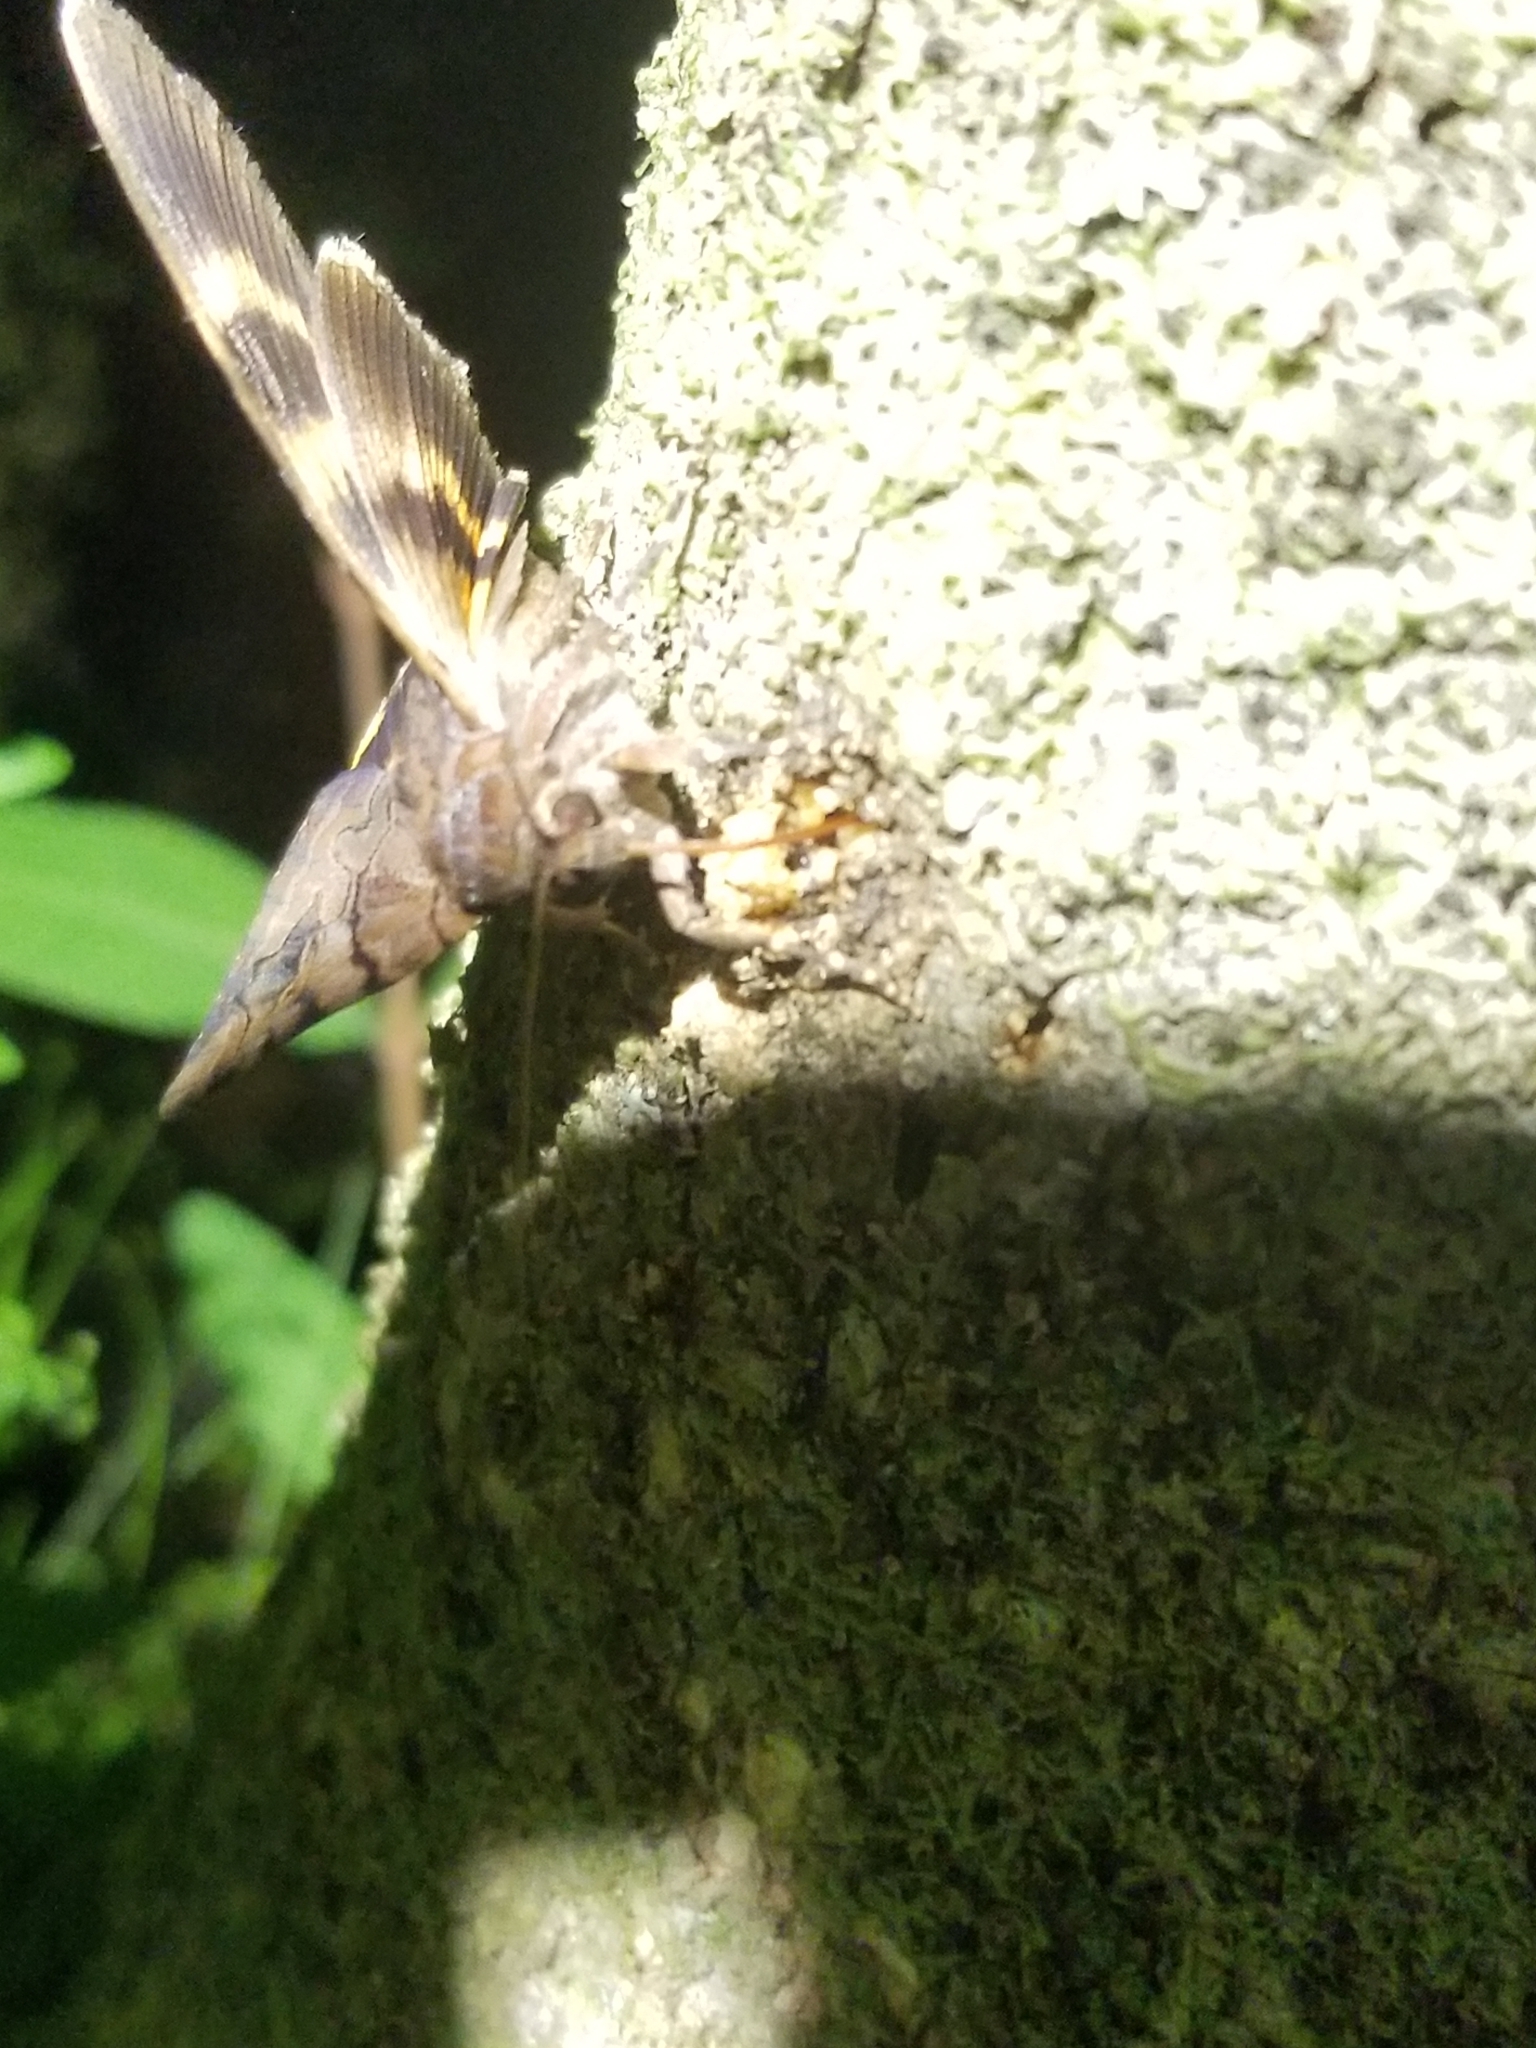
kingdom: Animalia
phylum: Arthropoda
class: Insecta
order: Lepidoptera
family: Erebidae
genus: Catocala
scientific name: Catocala muliercula
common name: The little wife underwing
